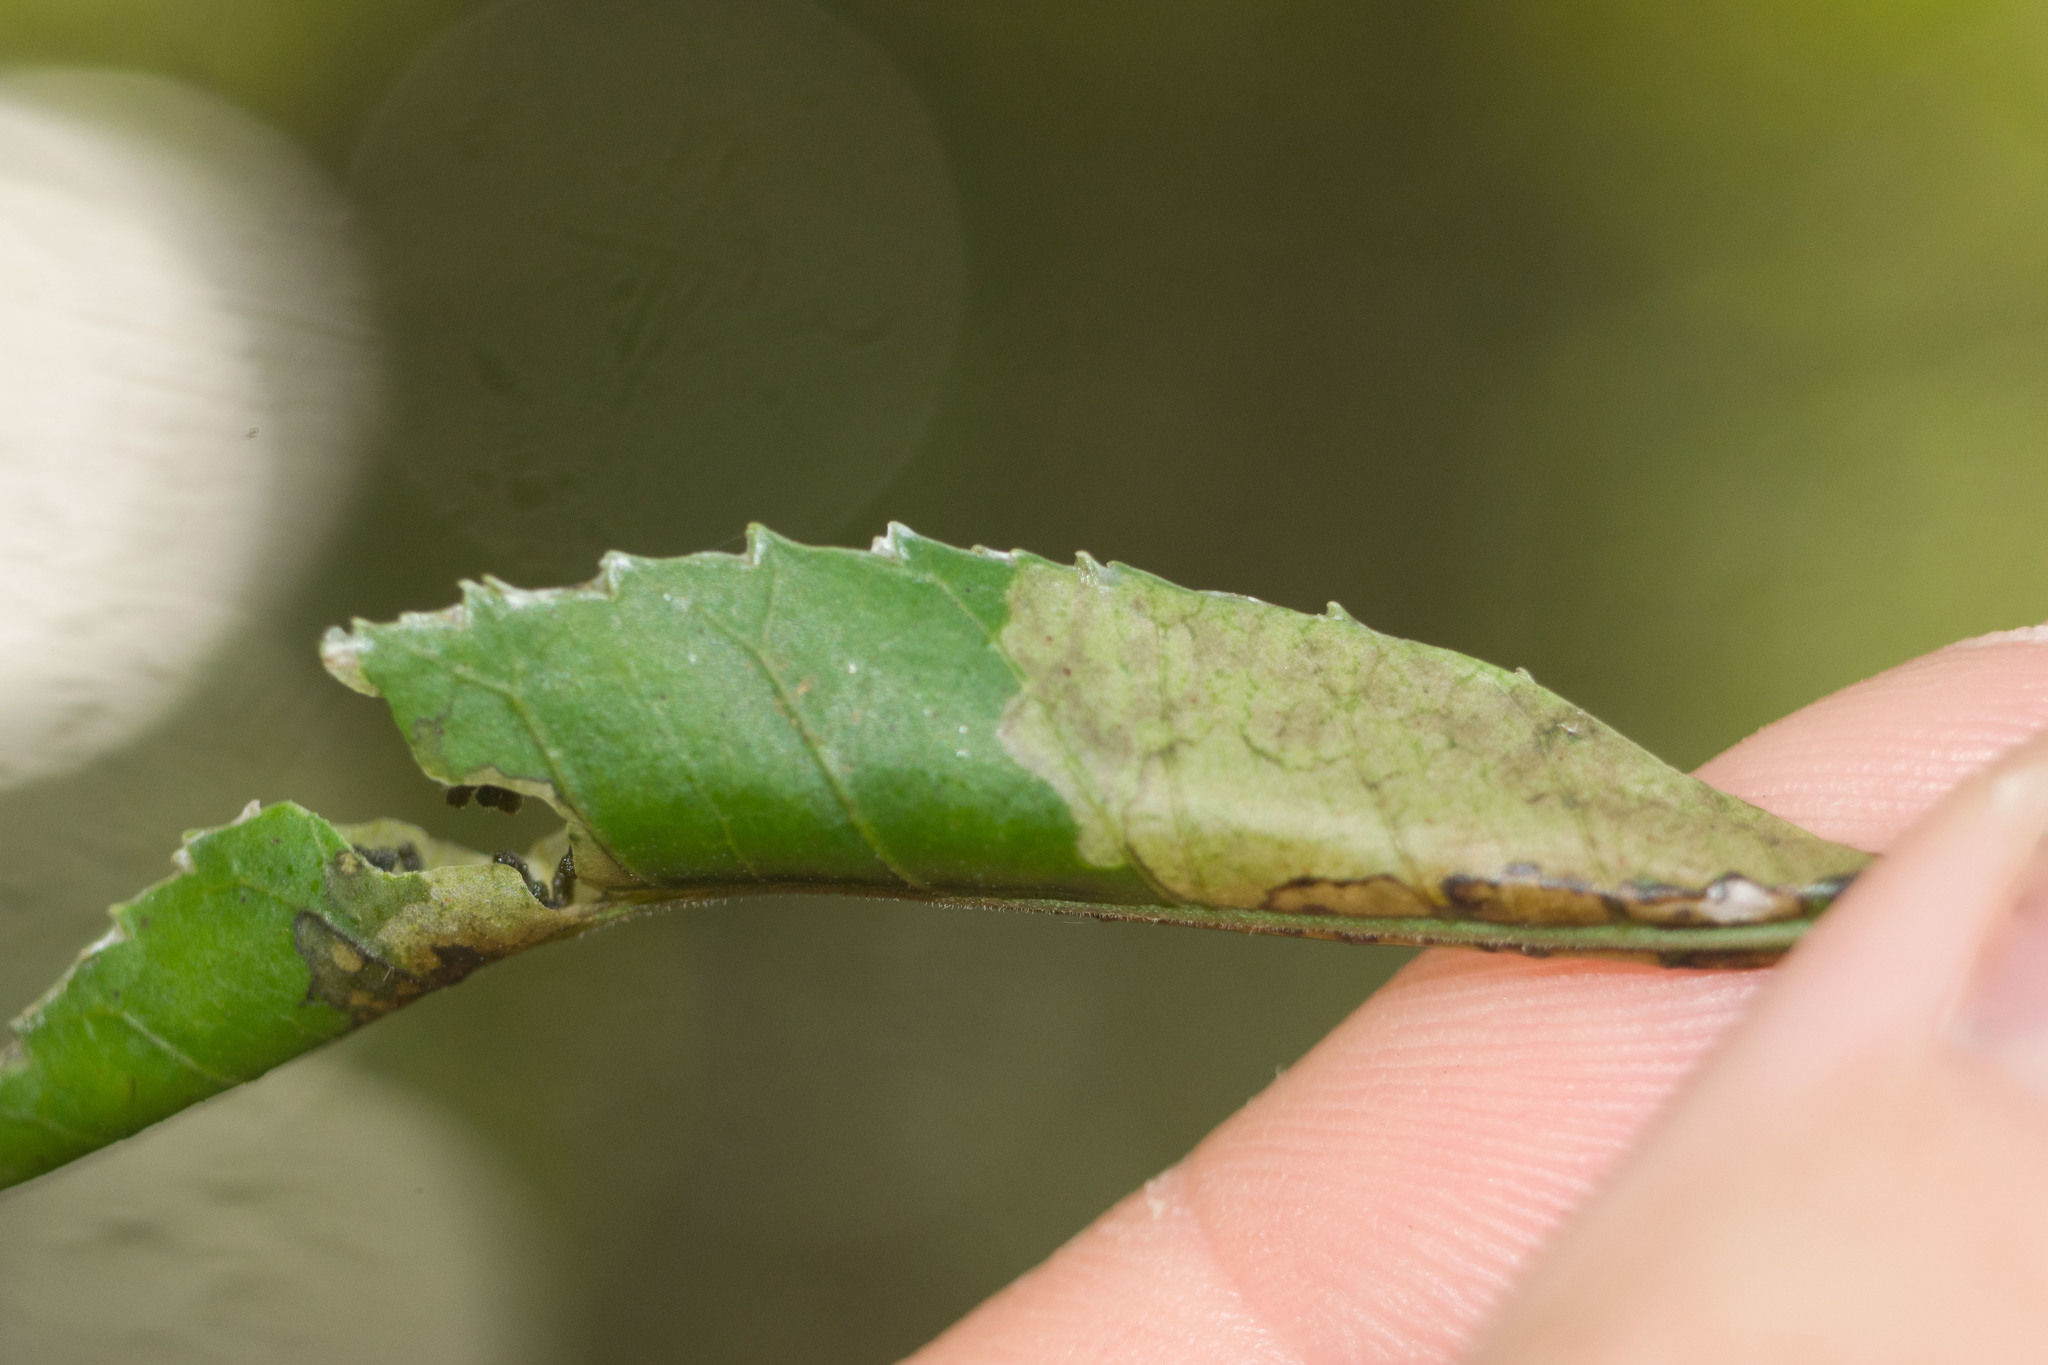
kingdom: Animalia
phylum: Arthropoda
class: Insecta
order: Lepidoptera
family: Tortricidae
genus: Episimus
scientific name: Episimus unguiculus
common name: Brazilian peppertree leaflet rolling moth
